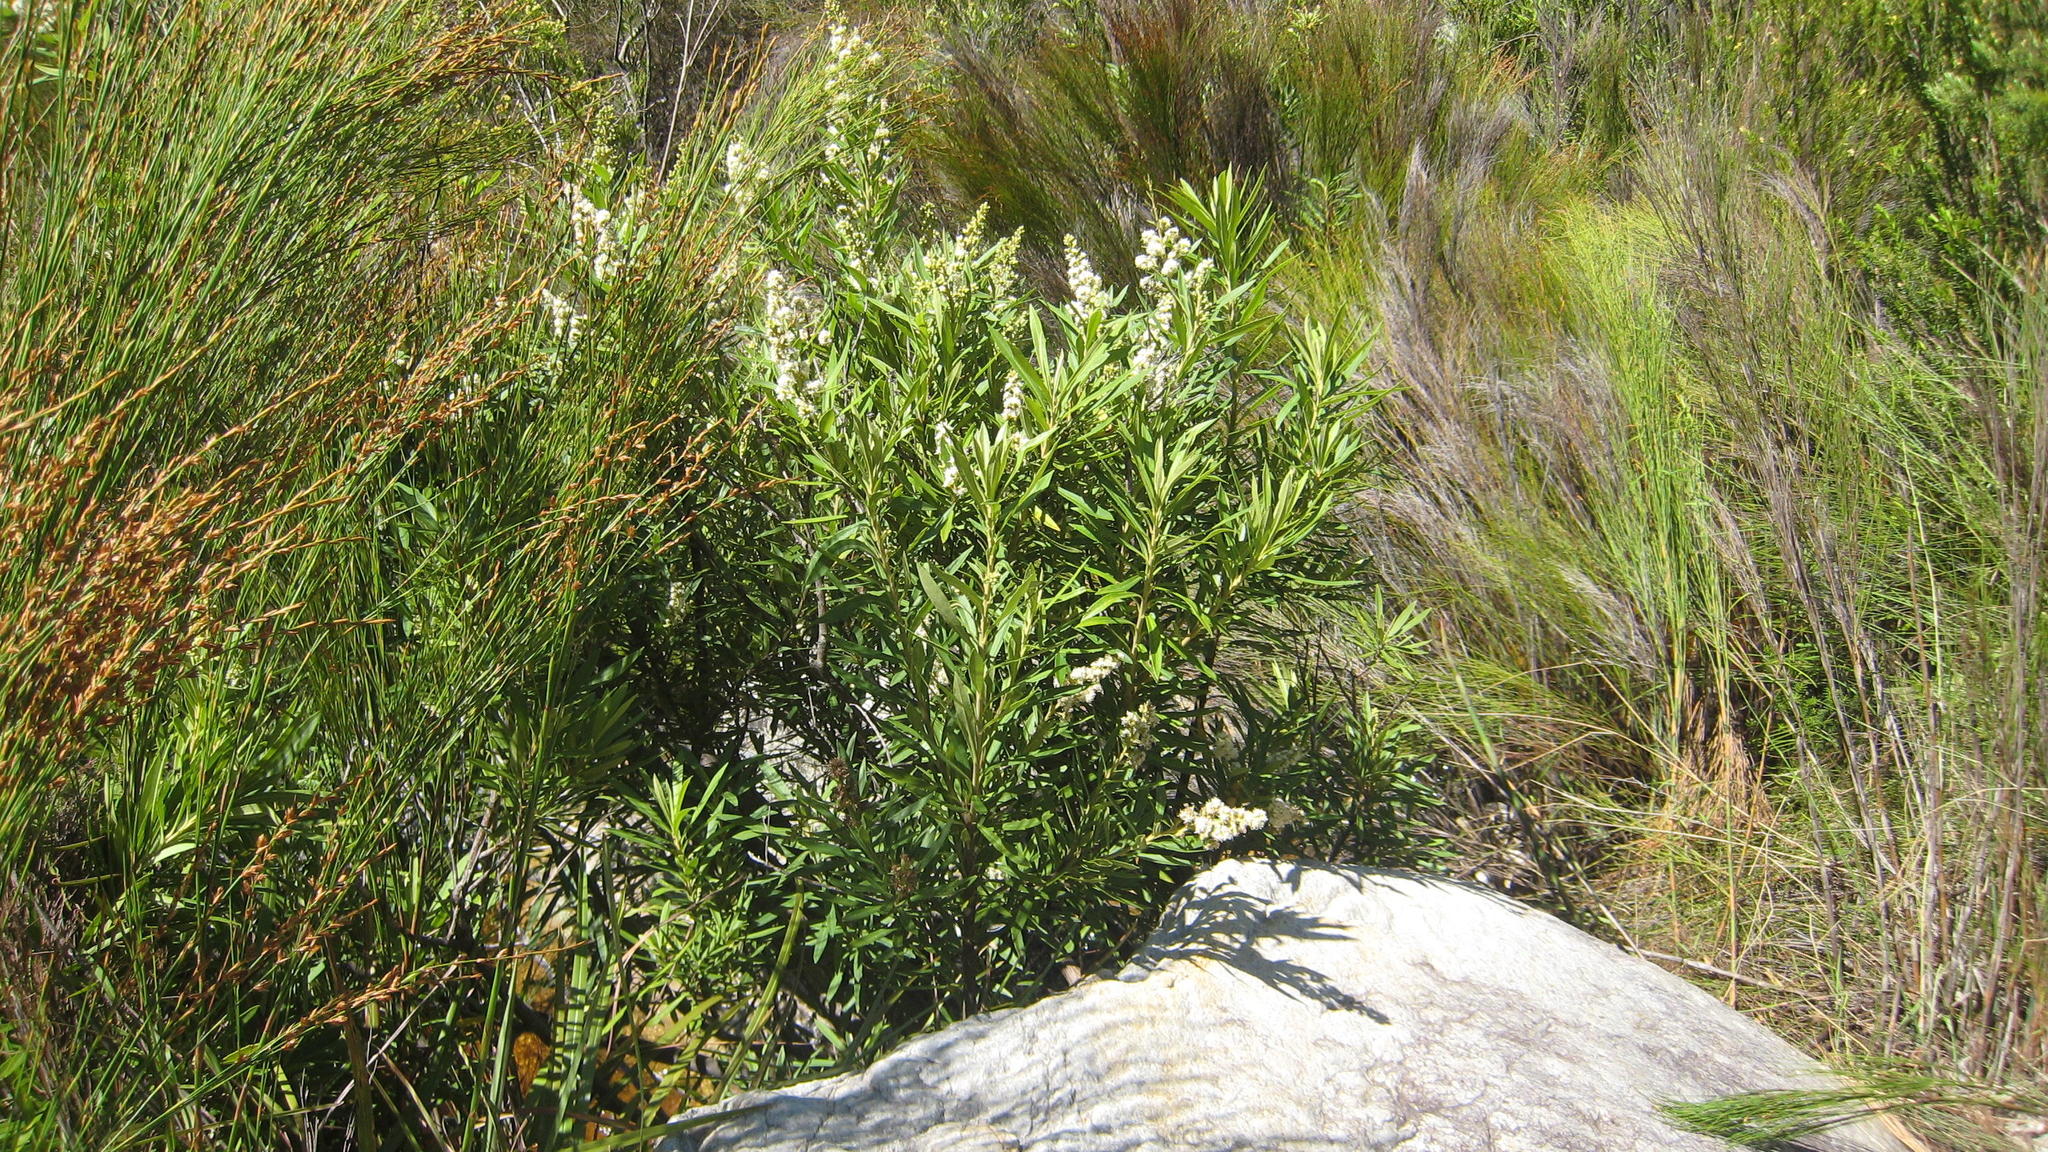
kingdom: Plantae
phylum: Tracheophyta
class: Magnoliopsida
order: Asterales
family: Asteraceae
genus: Brachylaena
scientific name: Brachylaena neriifolia
